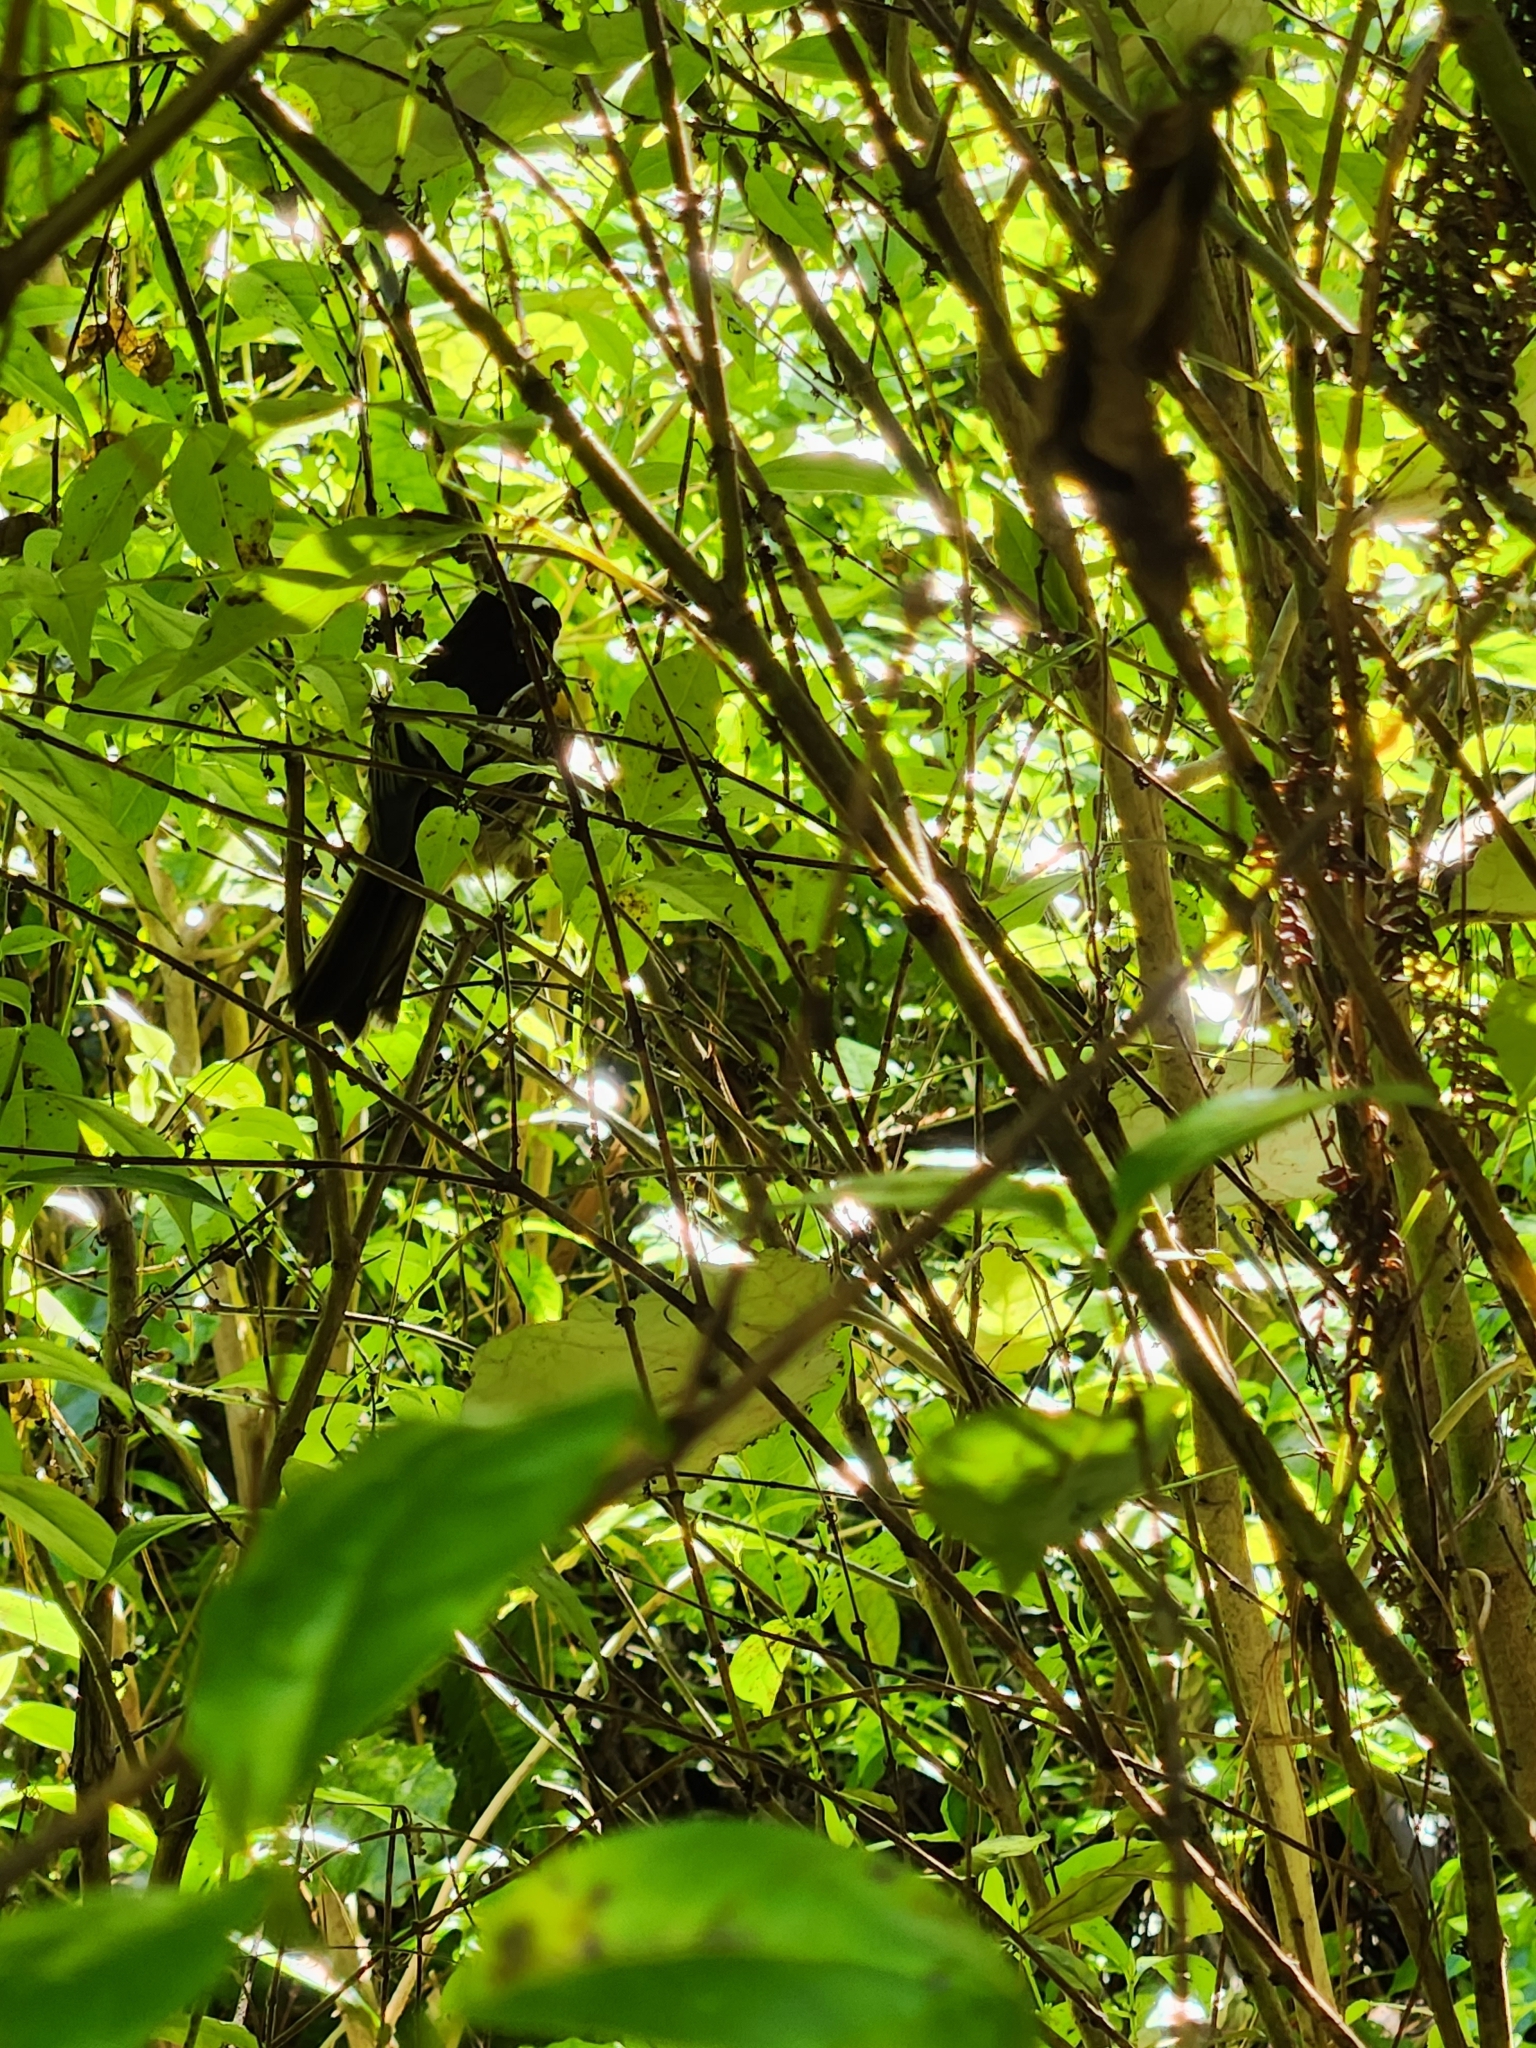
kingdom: Animalia
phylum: Chordata
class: Aves
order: Passeriformes
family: Notiomystidae
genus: Notiomystis
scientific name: Notiomystis cincta
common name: Stitchbird
